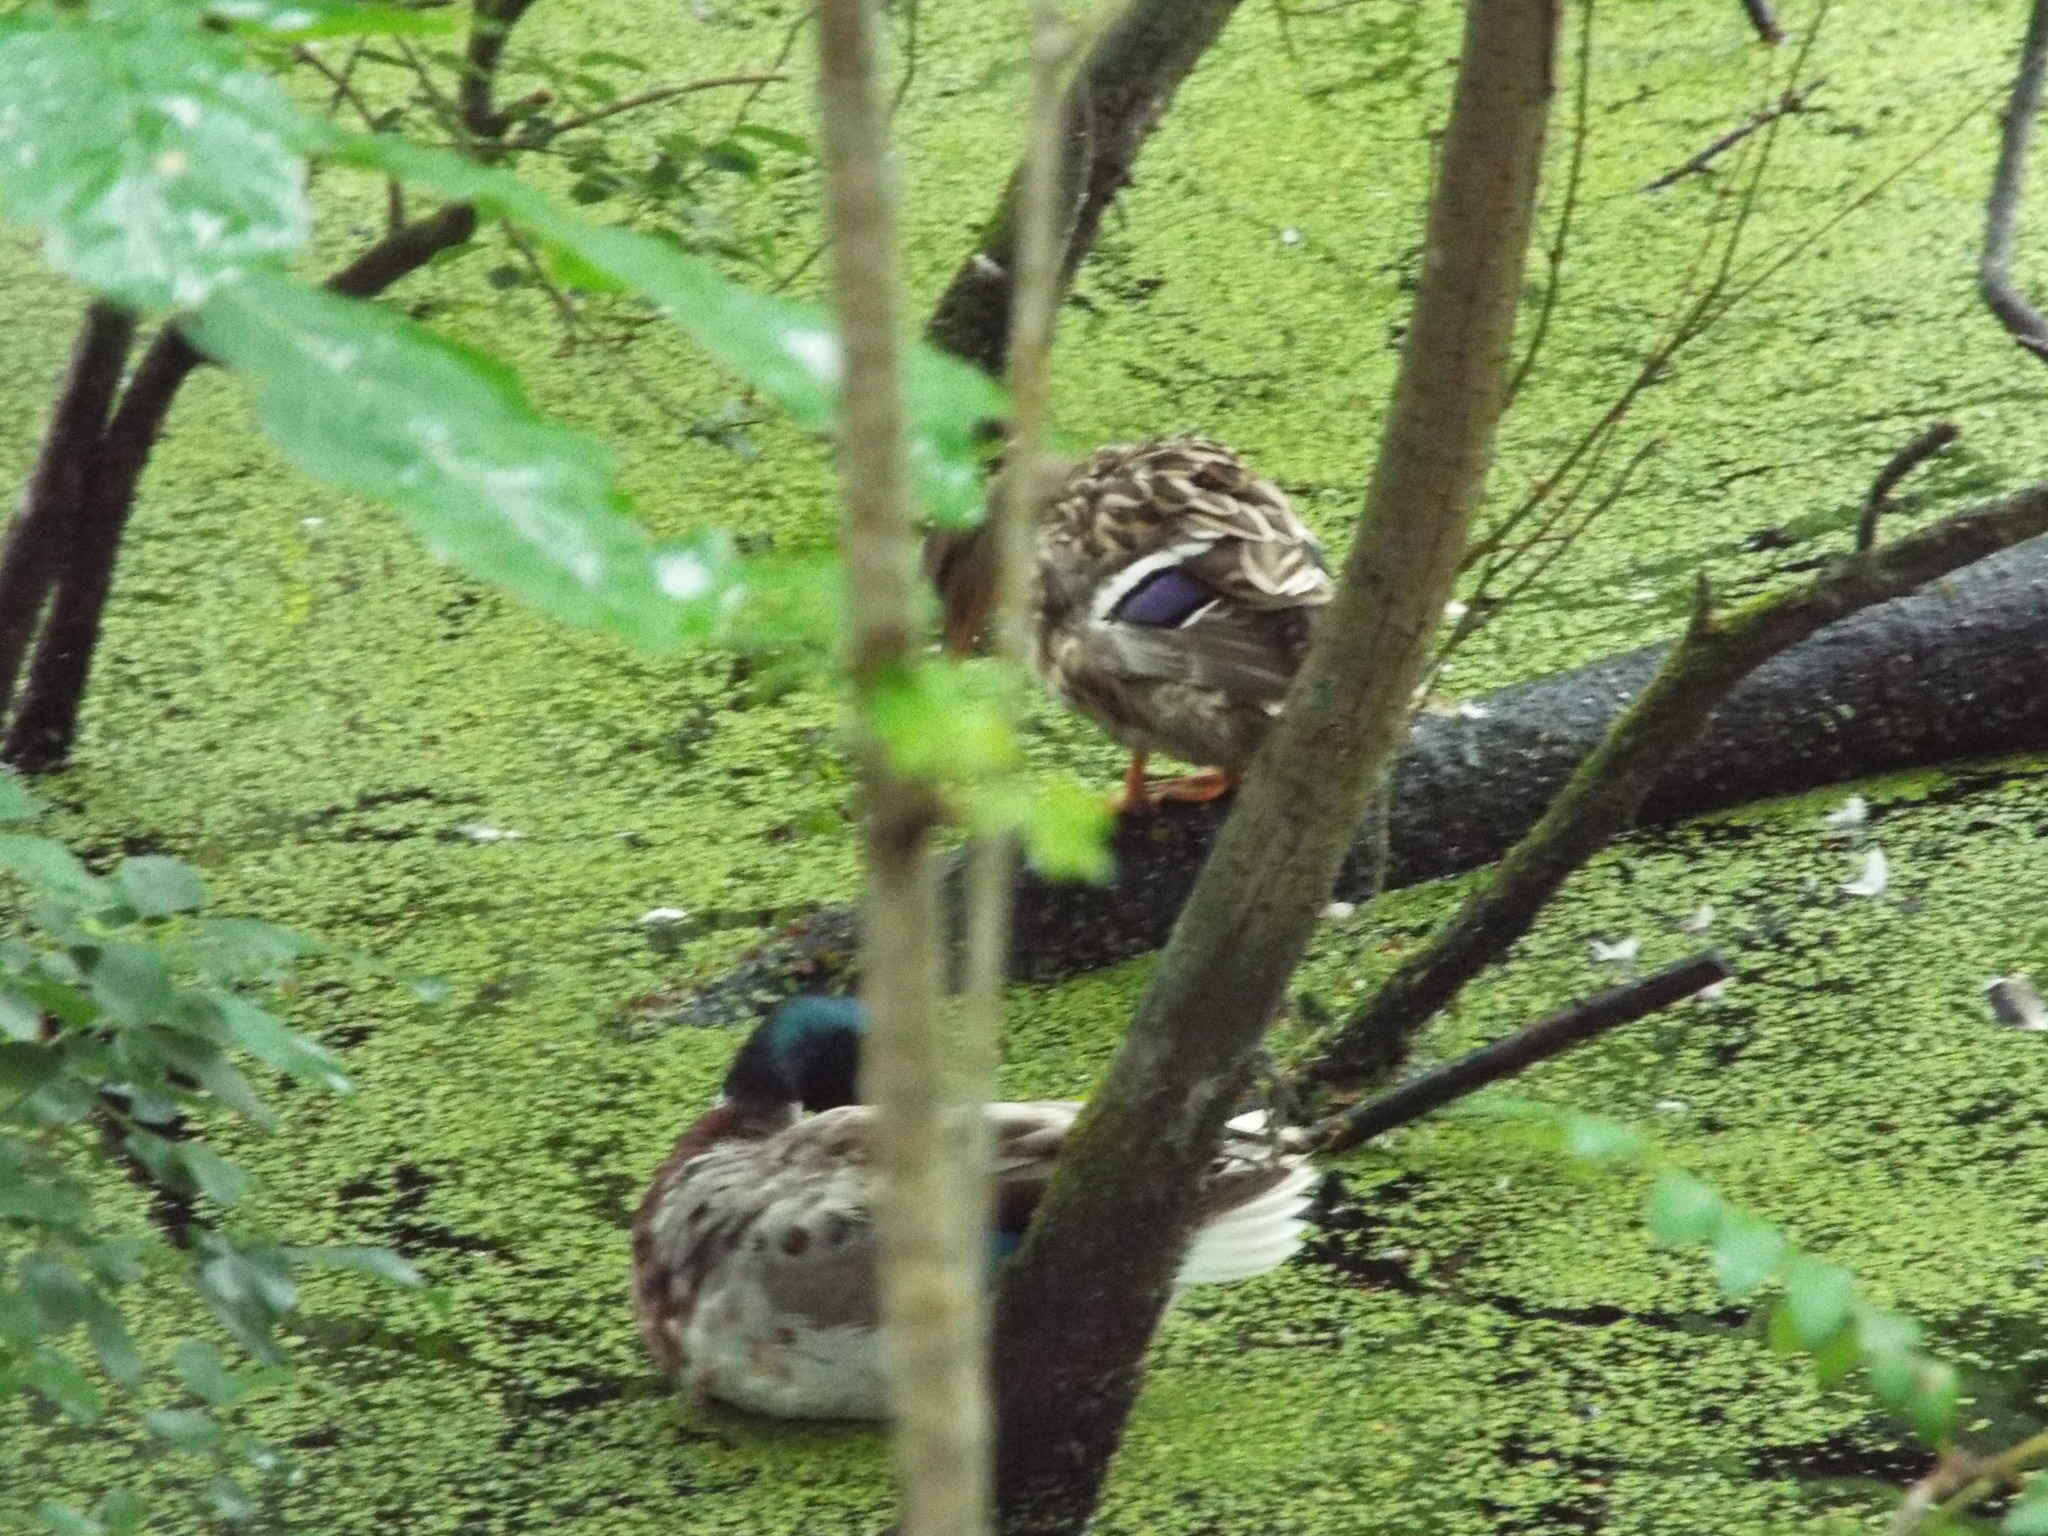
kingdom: Animalia
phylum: Chordata
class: Aves
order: Anseriformes
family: Anatidae
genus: Anas
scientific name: Anas platyrhynchos
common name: Mallard
